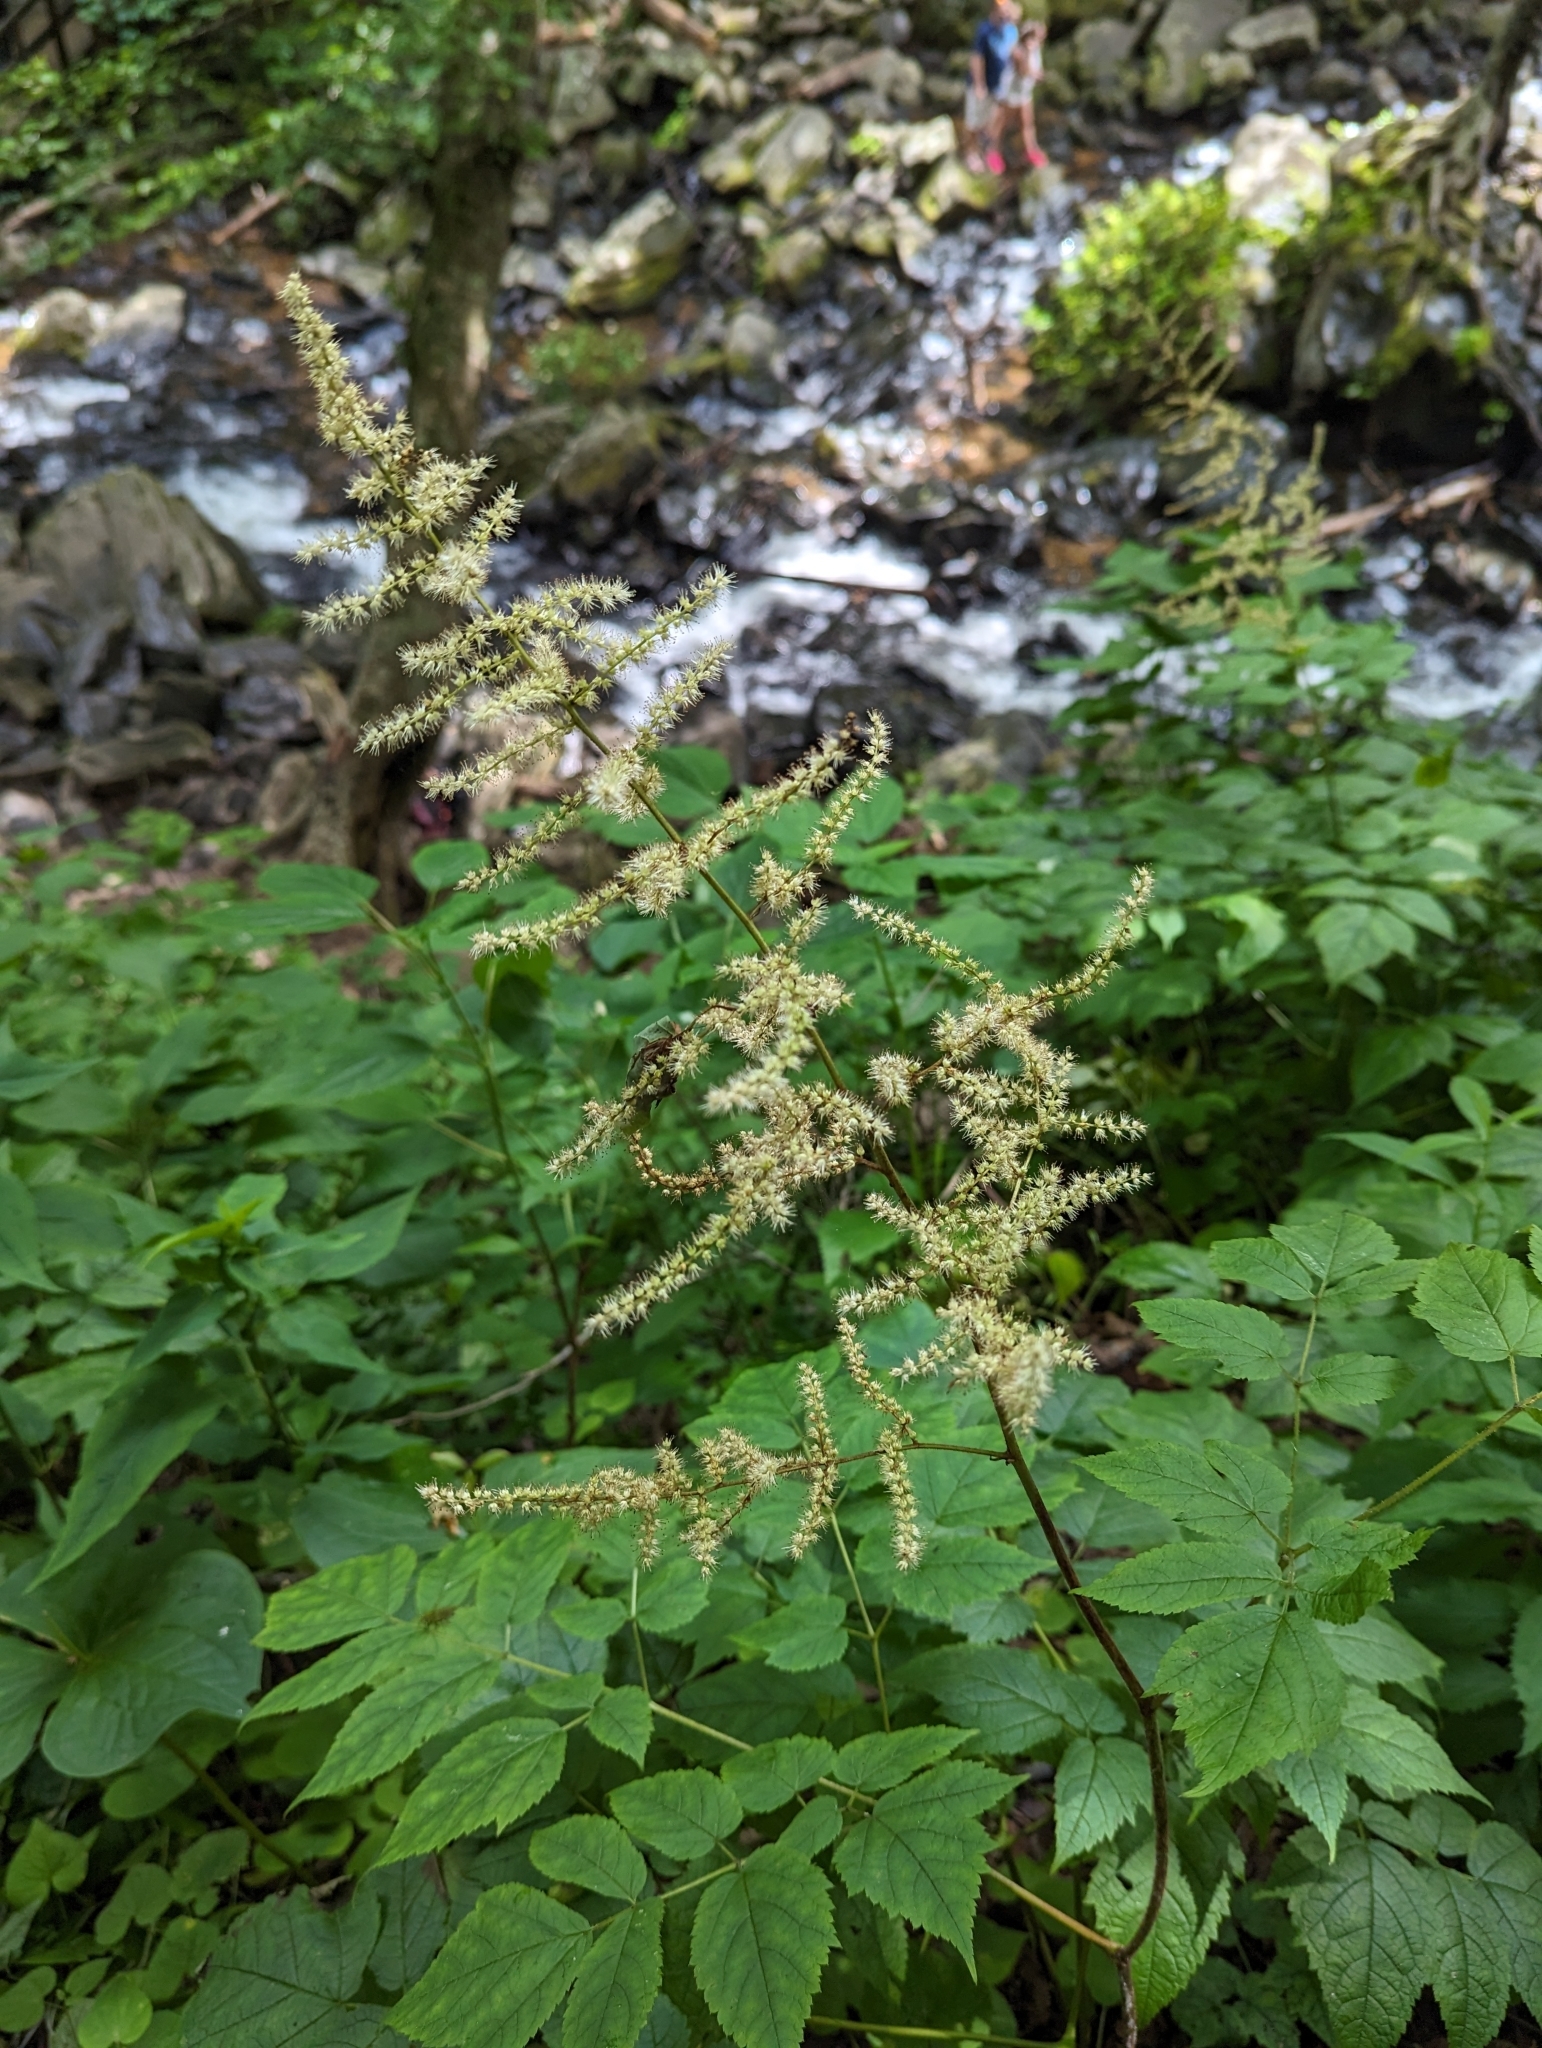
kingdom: Plantae
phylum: Tracheophyta
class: Magnoliopsida
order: Saxifragales
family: Saxifragaceae
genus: Astilbe
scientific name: Astilbe biternata
